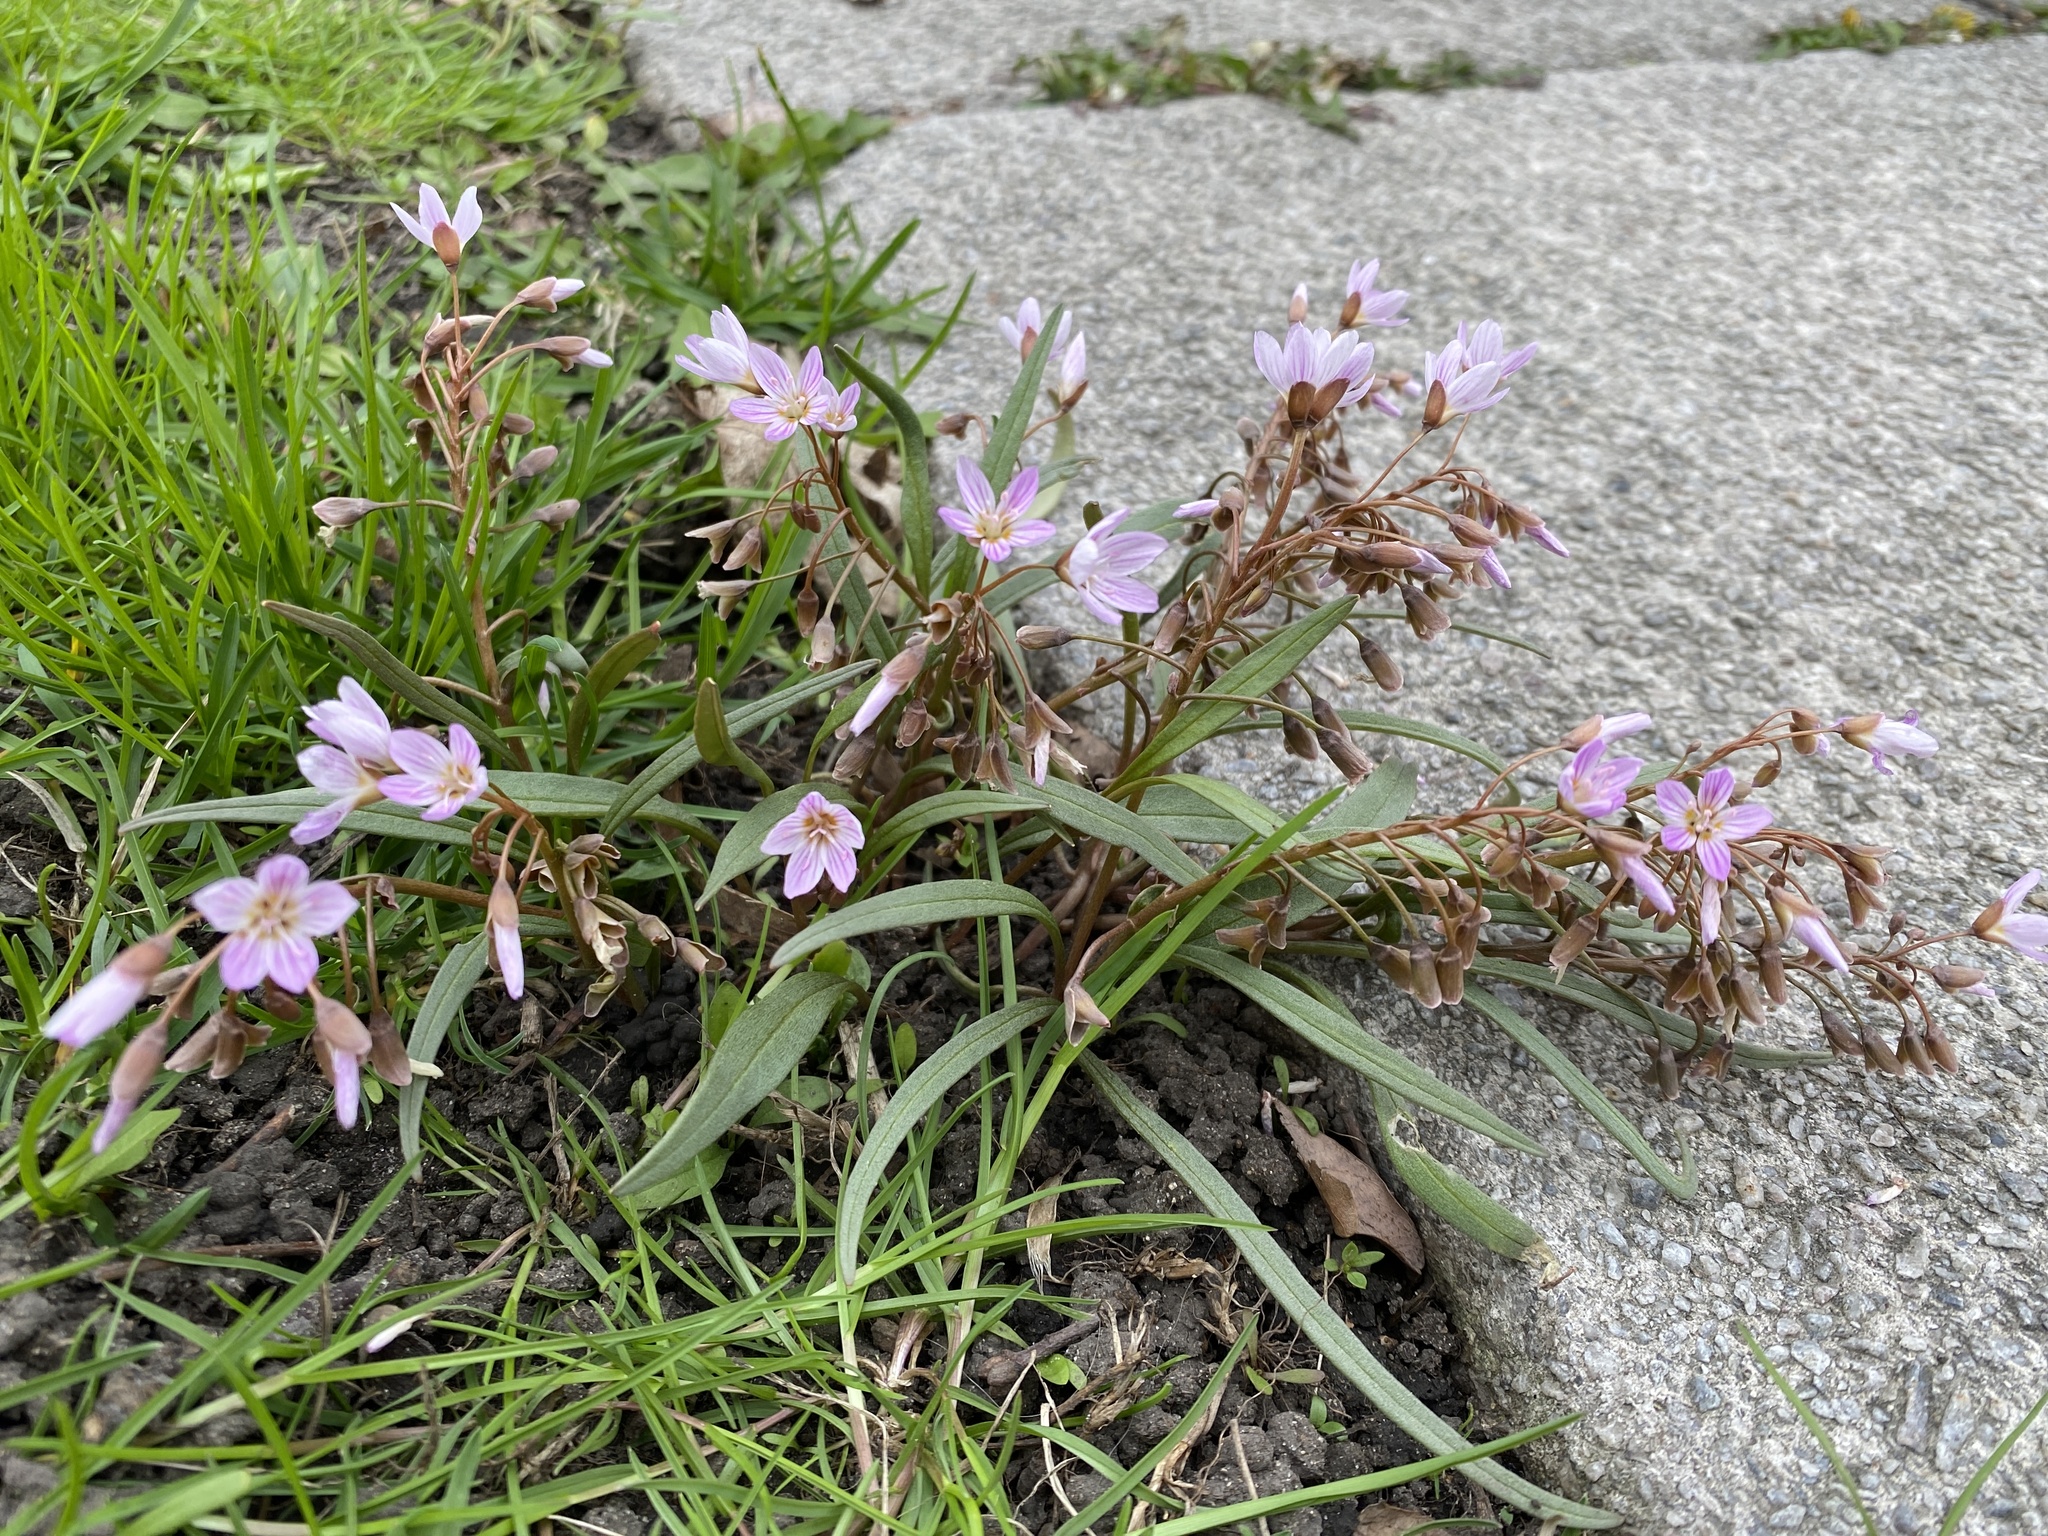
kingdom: Plantae
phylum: Tracheophyta
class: Magnoliopsida
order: Caryophyllales
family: Montiaceae
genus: Claytonia
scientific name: Claytonia virginica
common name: Virginia springbeauty
